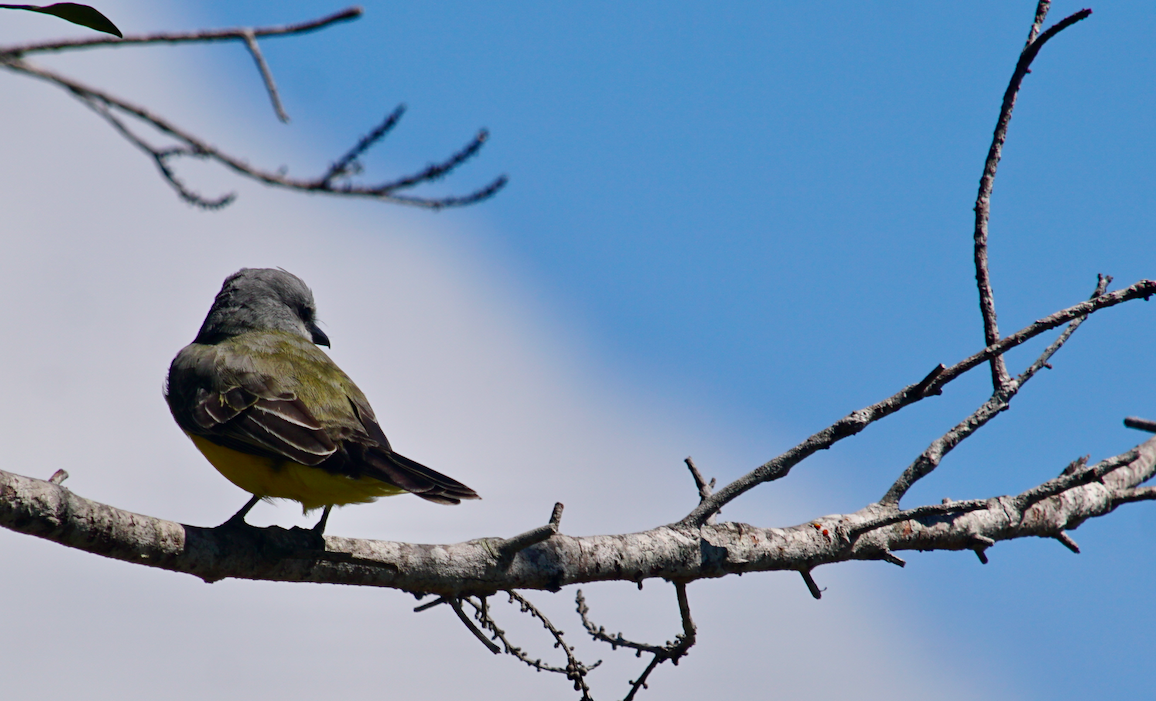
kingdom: Animalia
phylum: Chordata
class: Aves
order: Passeriformes
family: Tyrannidae
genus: Tyrannus
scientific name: Tyrannus melancholicus
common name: Tropical kingbird
